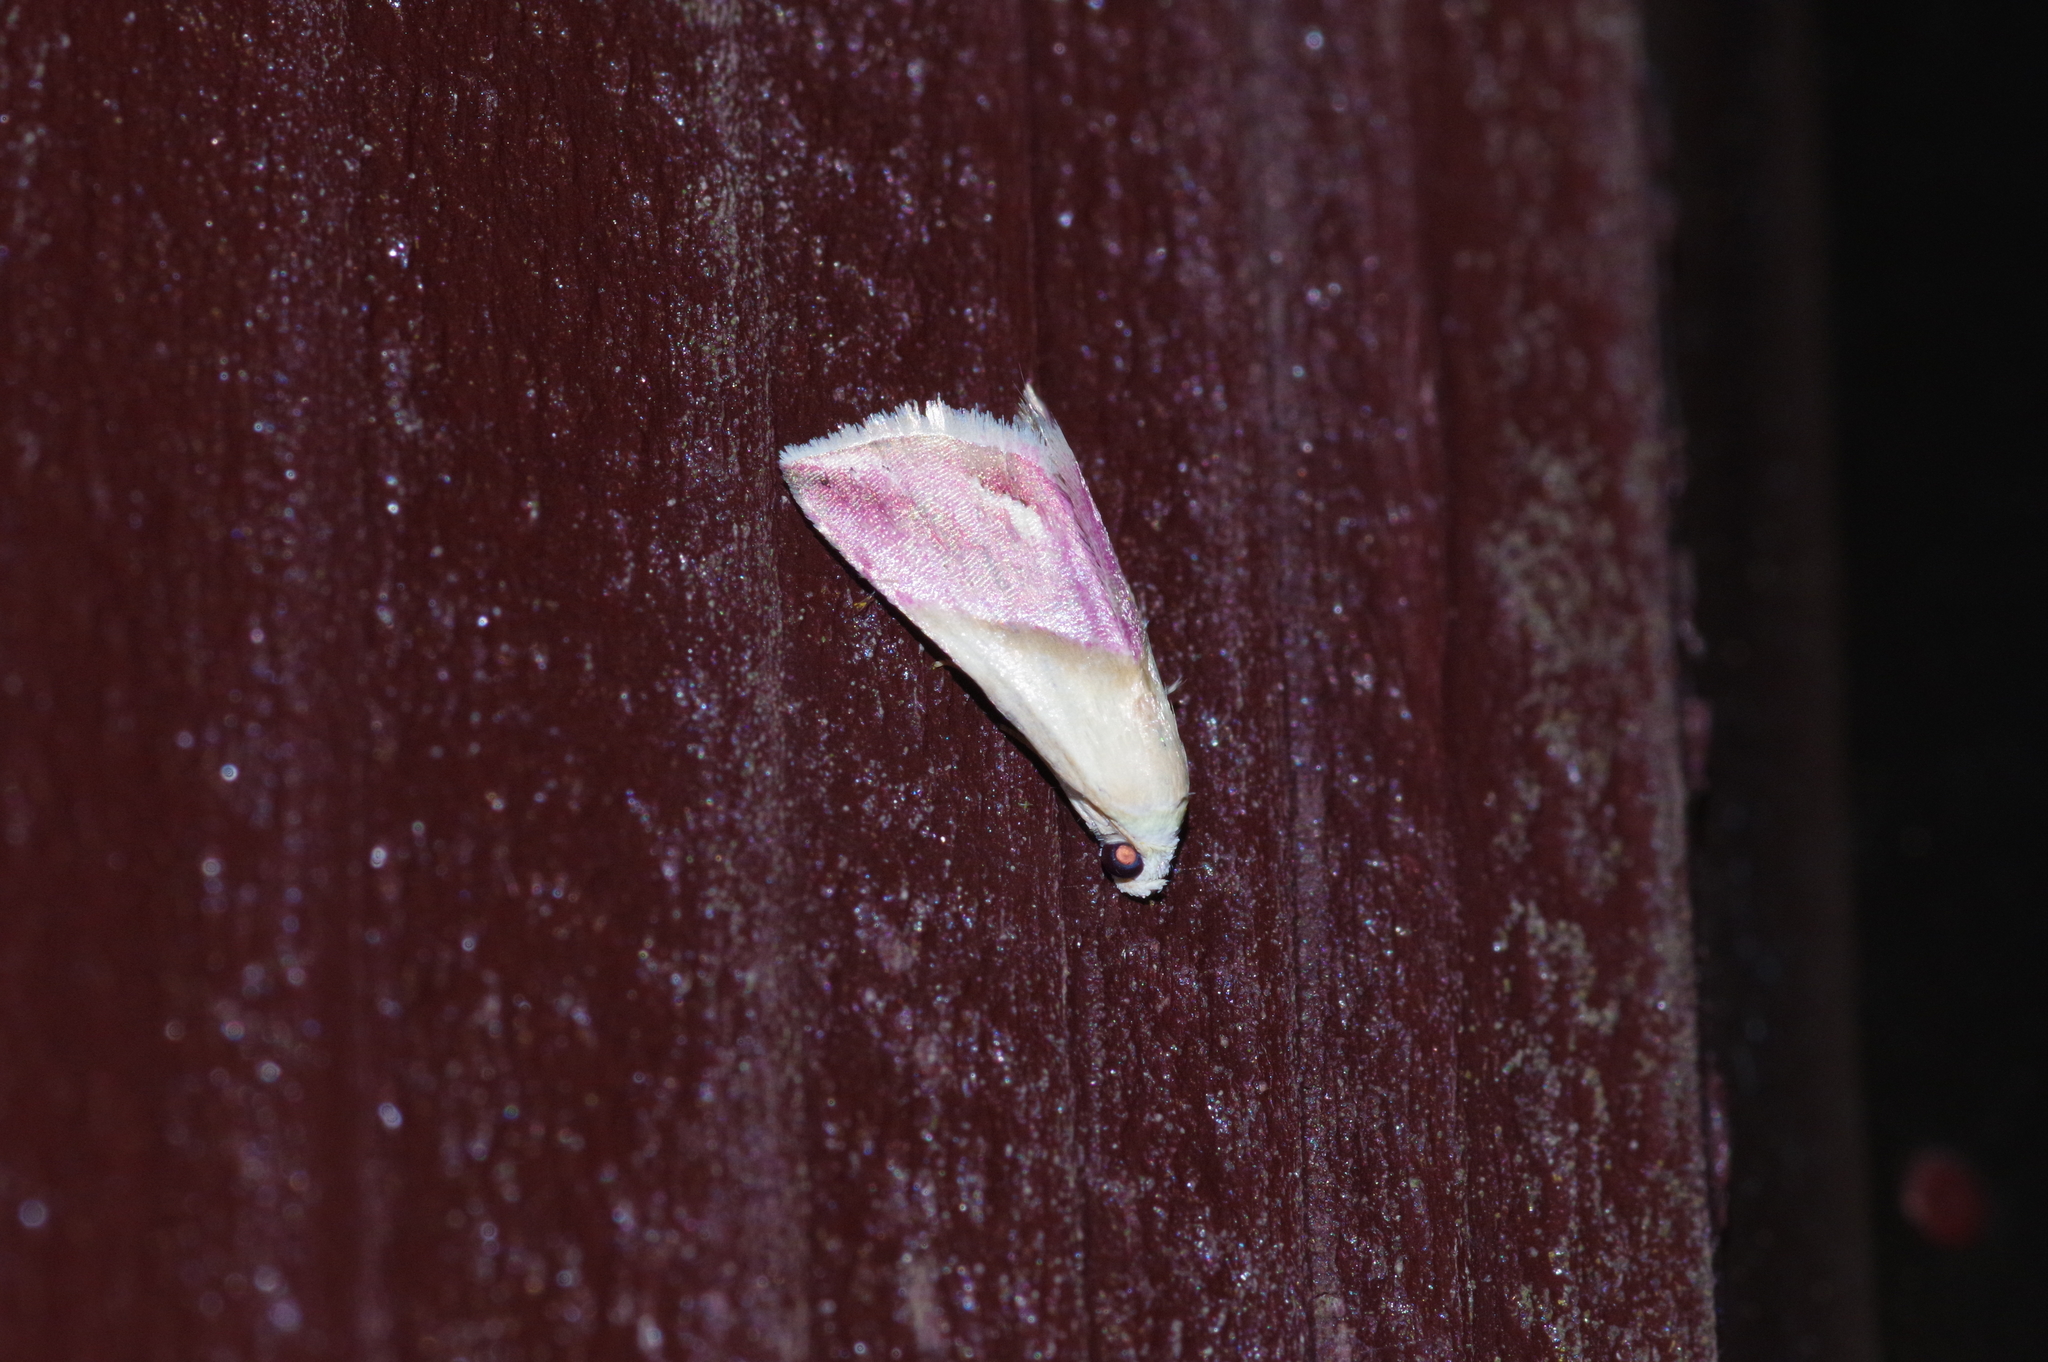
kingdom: Animalia
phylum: Arthropoda
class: Insecta
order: Lepidoptera
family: Noctuidae
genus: Eublemma
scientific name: Eublemma cochylioides
